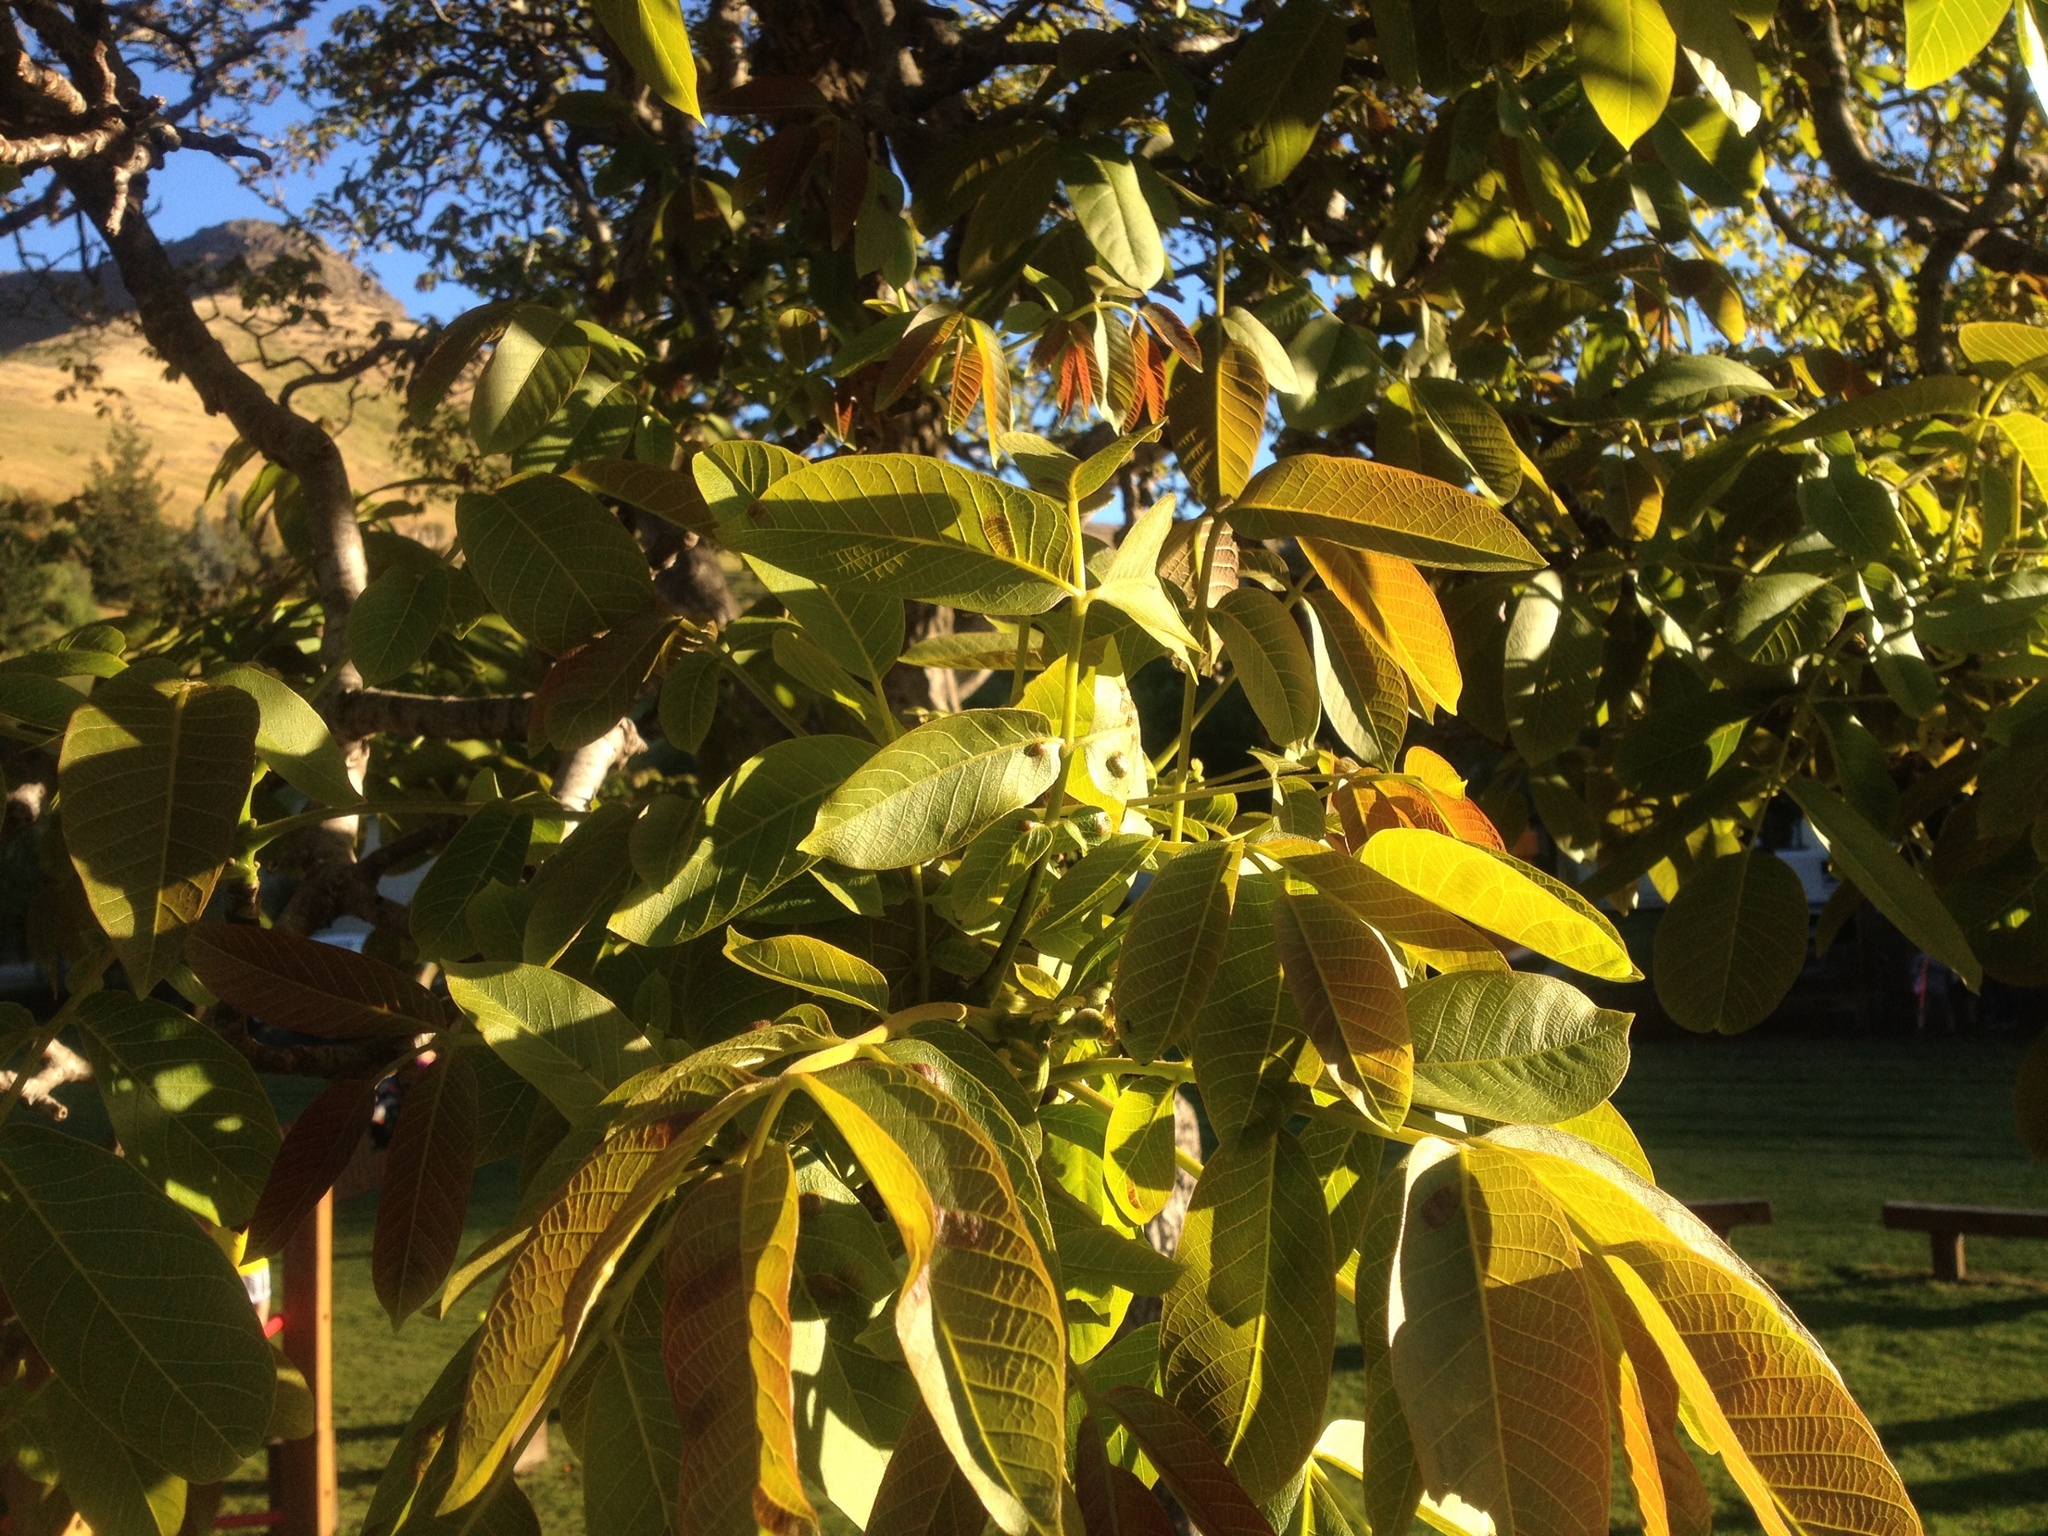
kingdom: Animalia
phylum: Arthropoda
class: Arachnida
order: Trombidiformes
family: Eriophyidae
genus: Aceria
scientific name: Aceria erinea
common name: Persian walnut erineum mite
